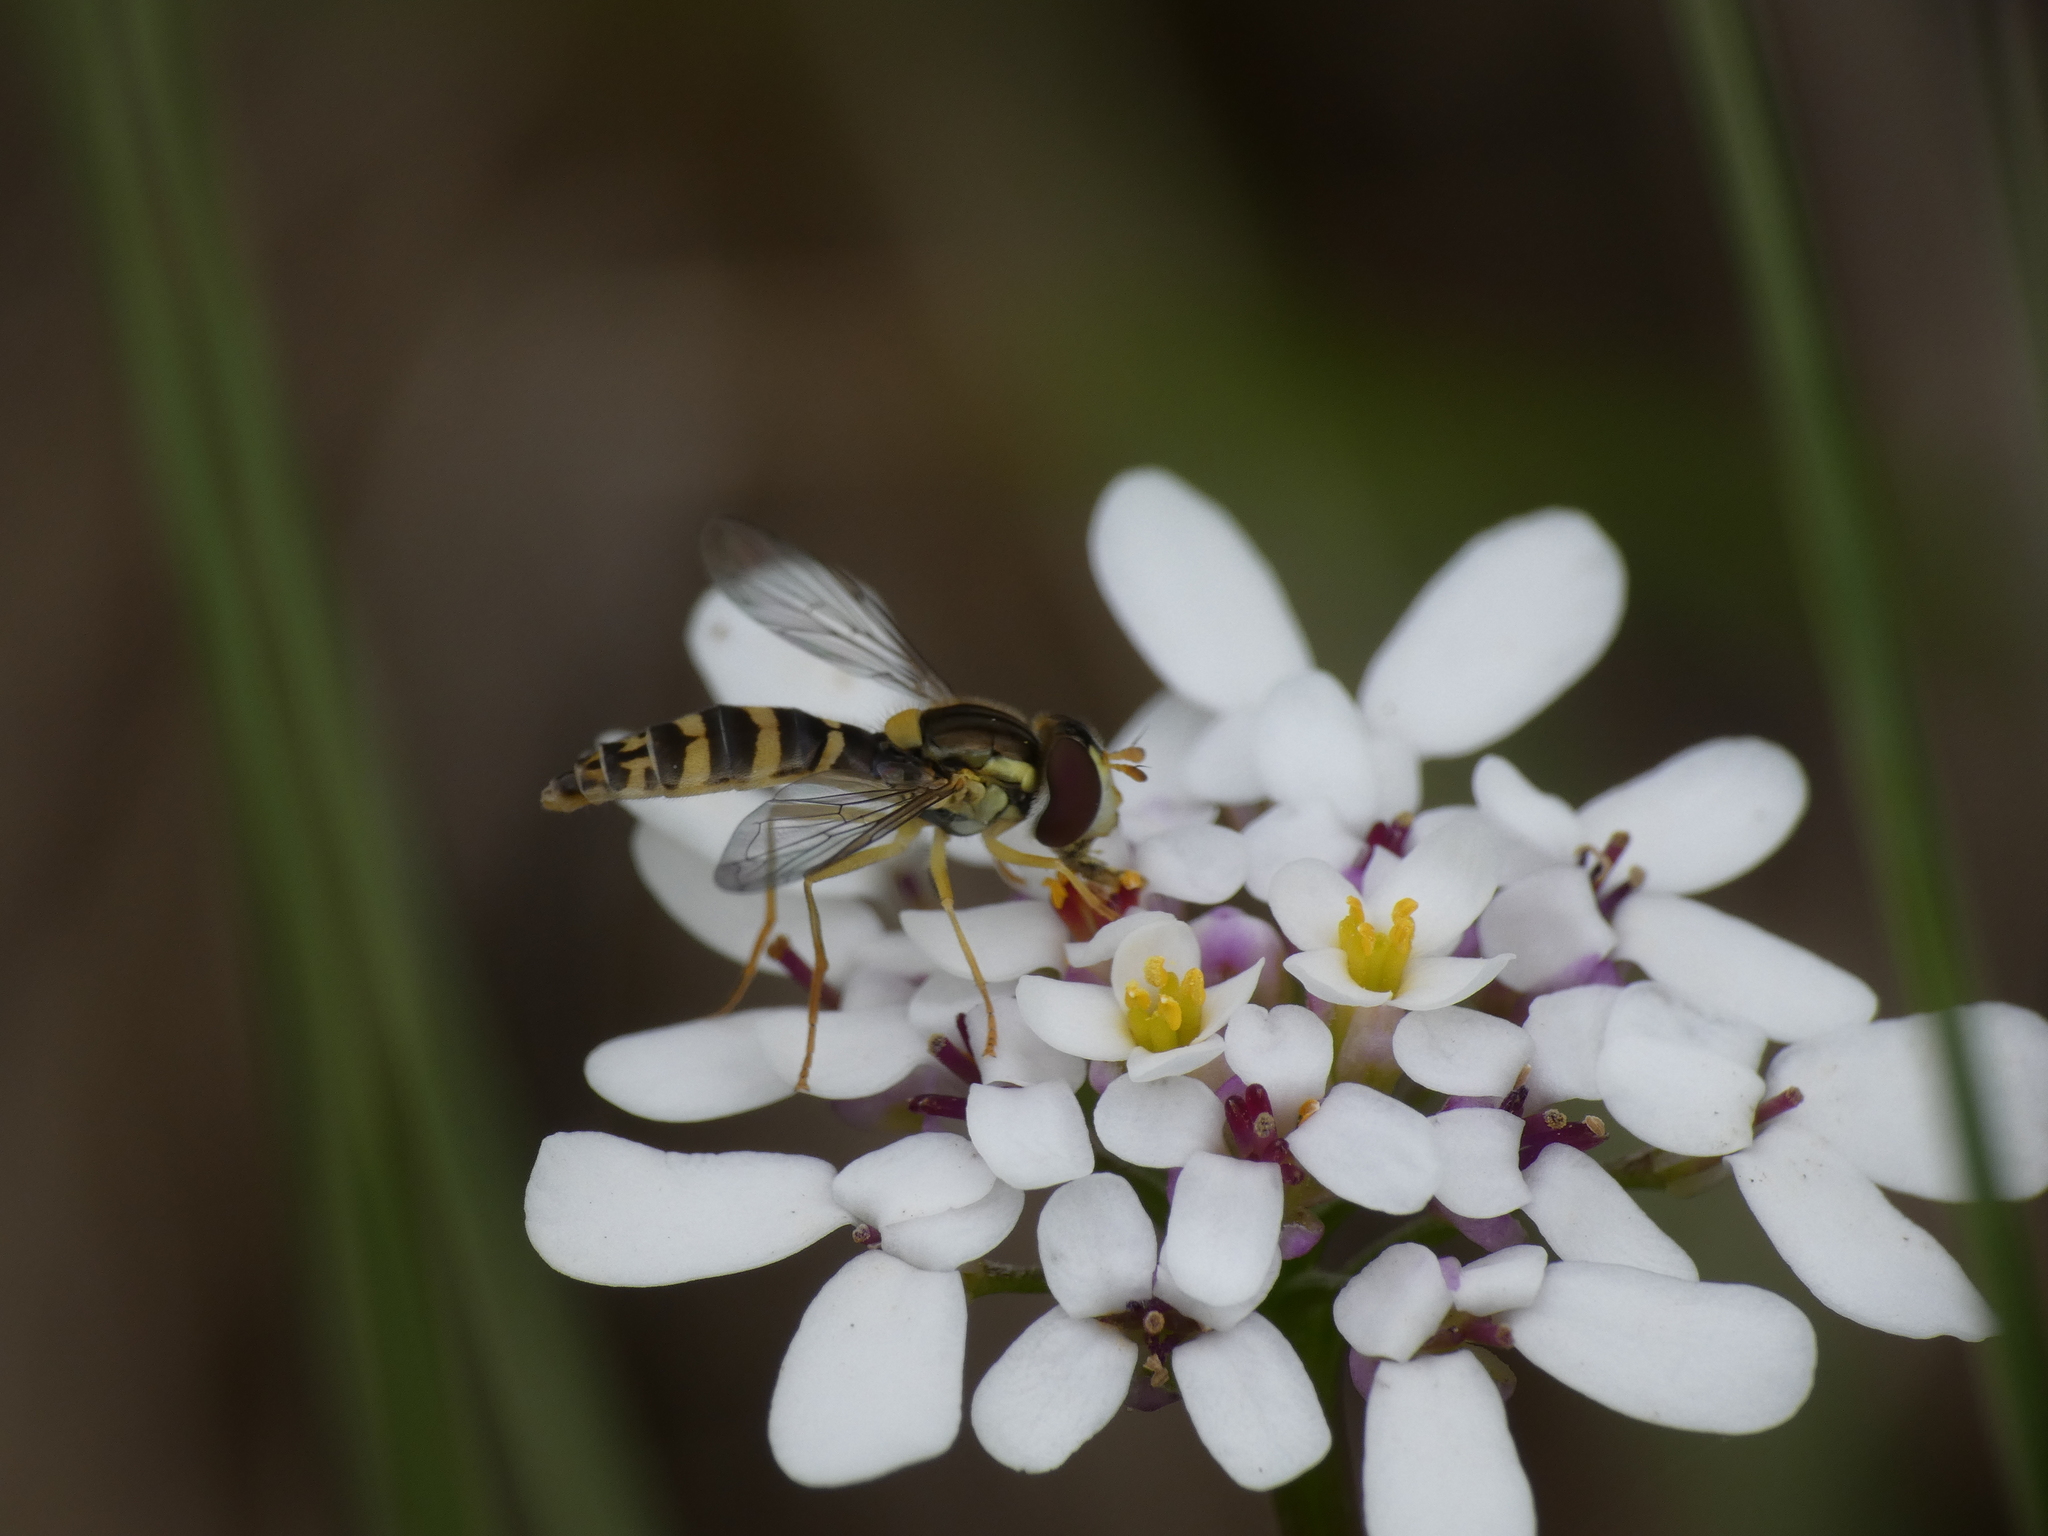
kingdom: Animalia
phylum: Arthropoda
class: Insecta
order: Diptera
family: Syrphidae
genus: Sphaerophoria
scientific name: Sphaerophoria
